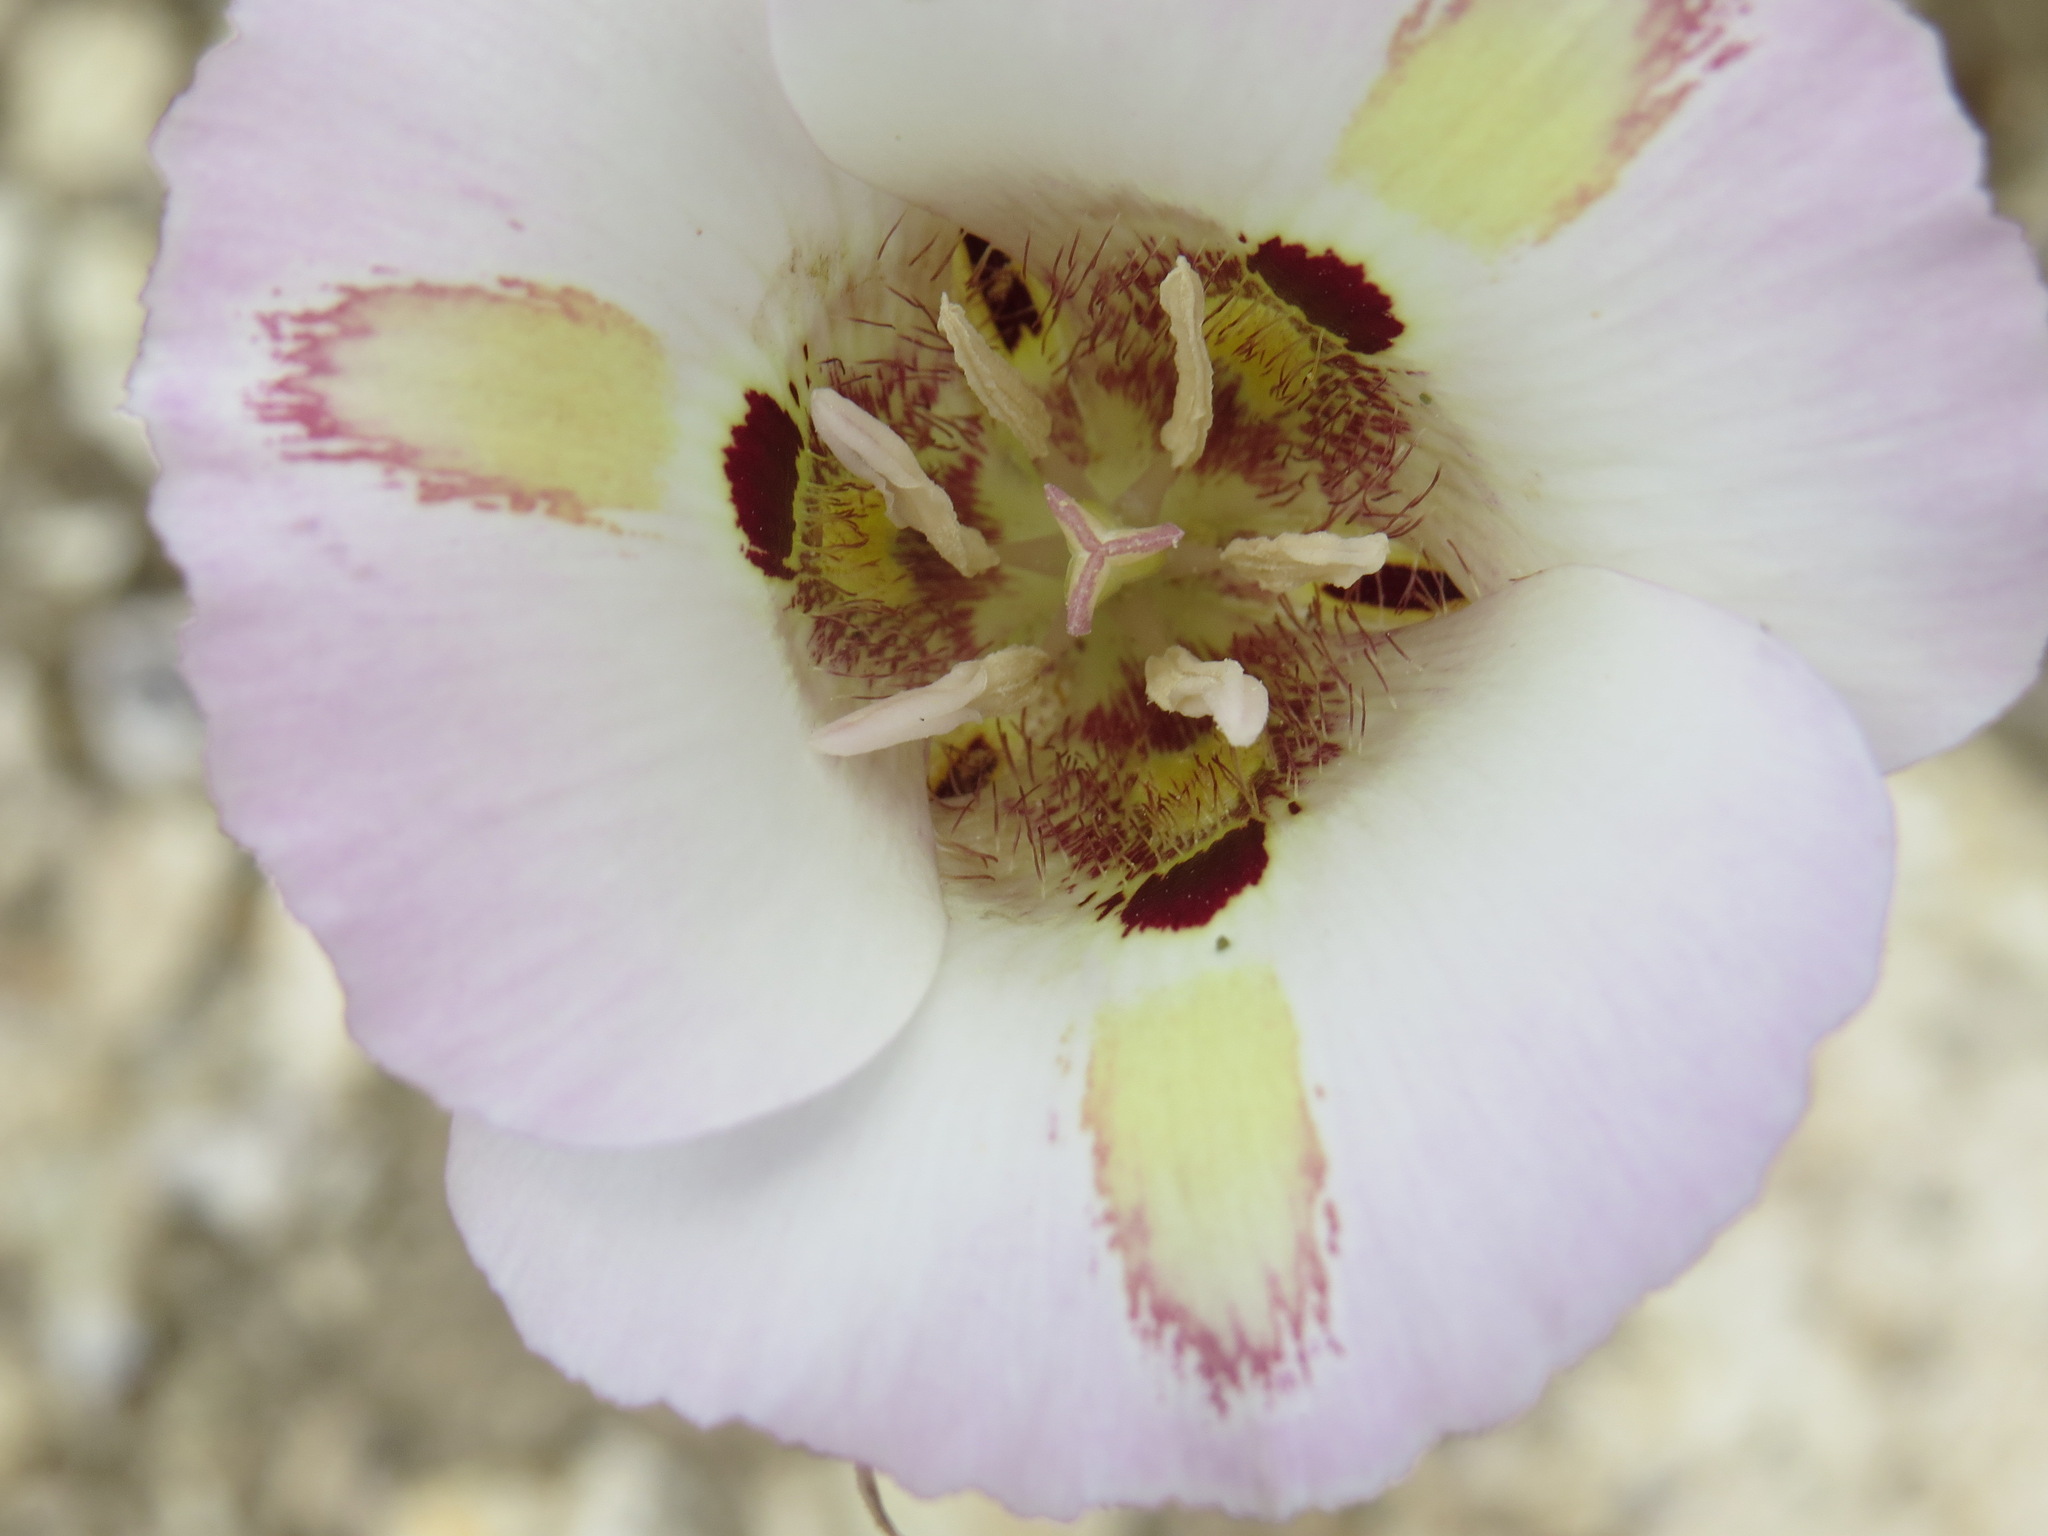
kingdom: Plantae
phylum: Tracheophyta
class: Liliopsida
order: Liliales
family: Liliaceae
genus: Calochortus
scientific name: Calochortus venustus
